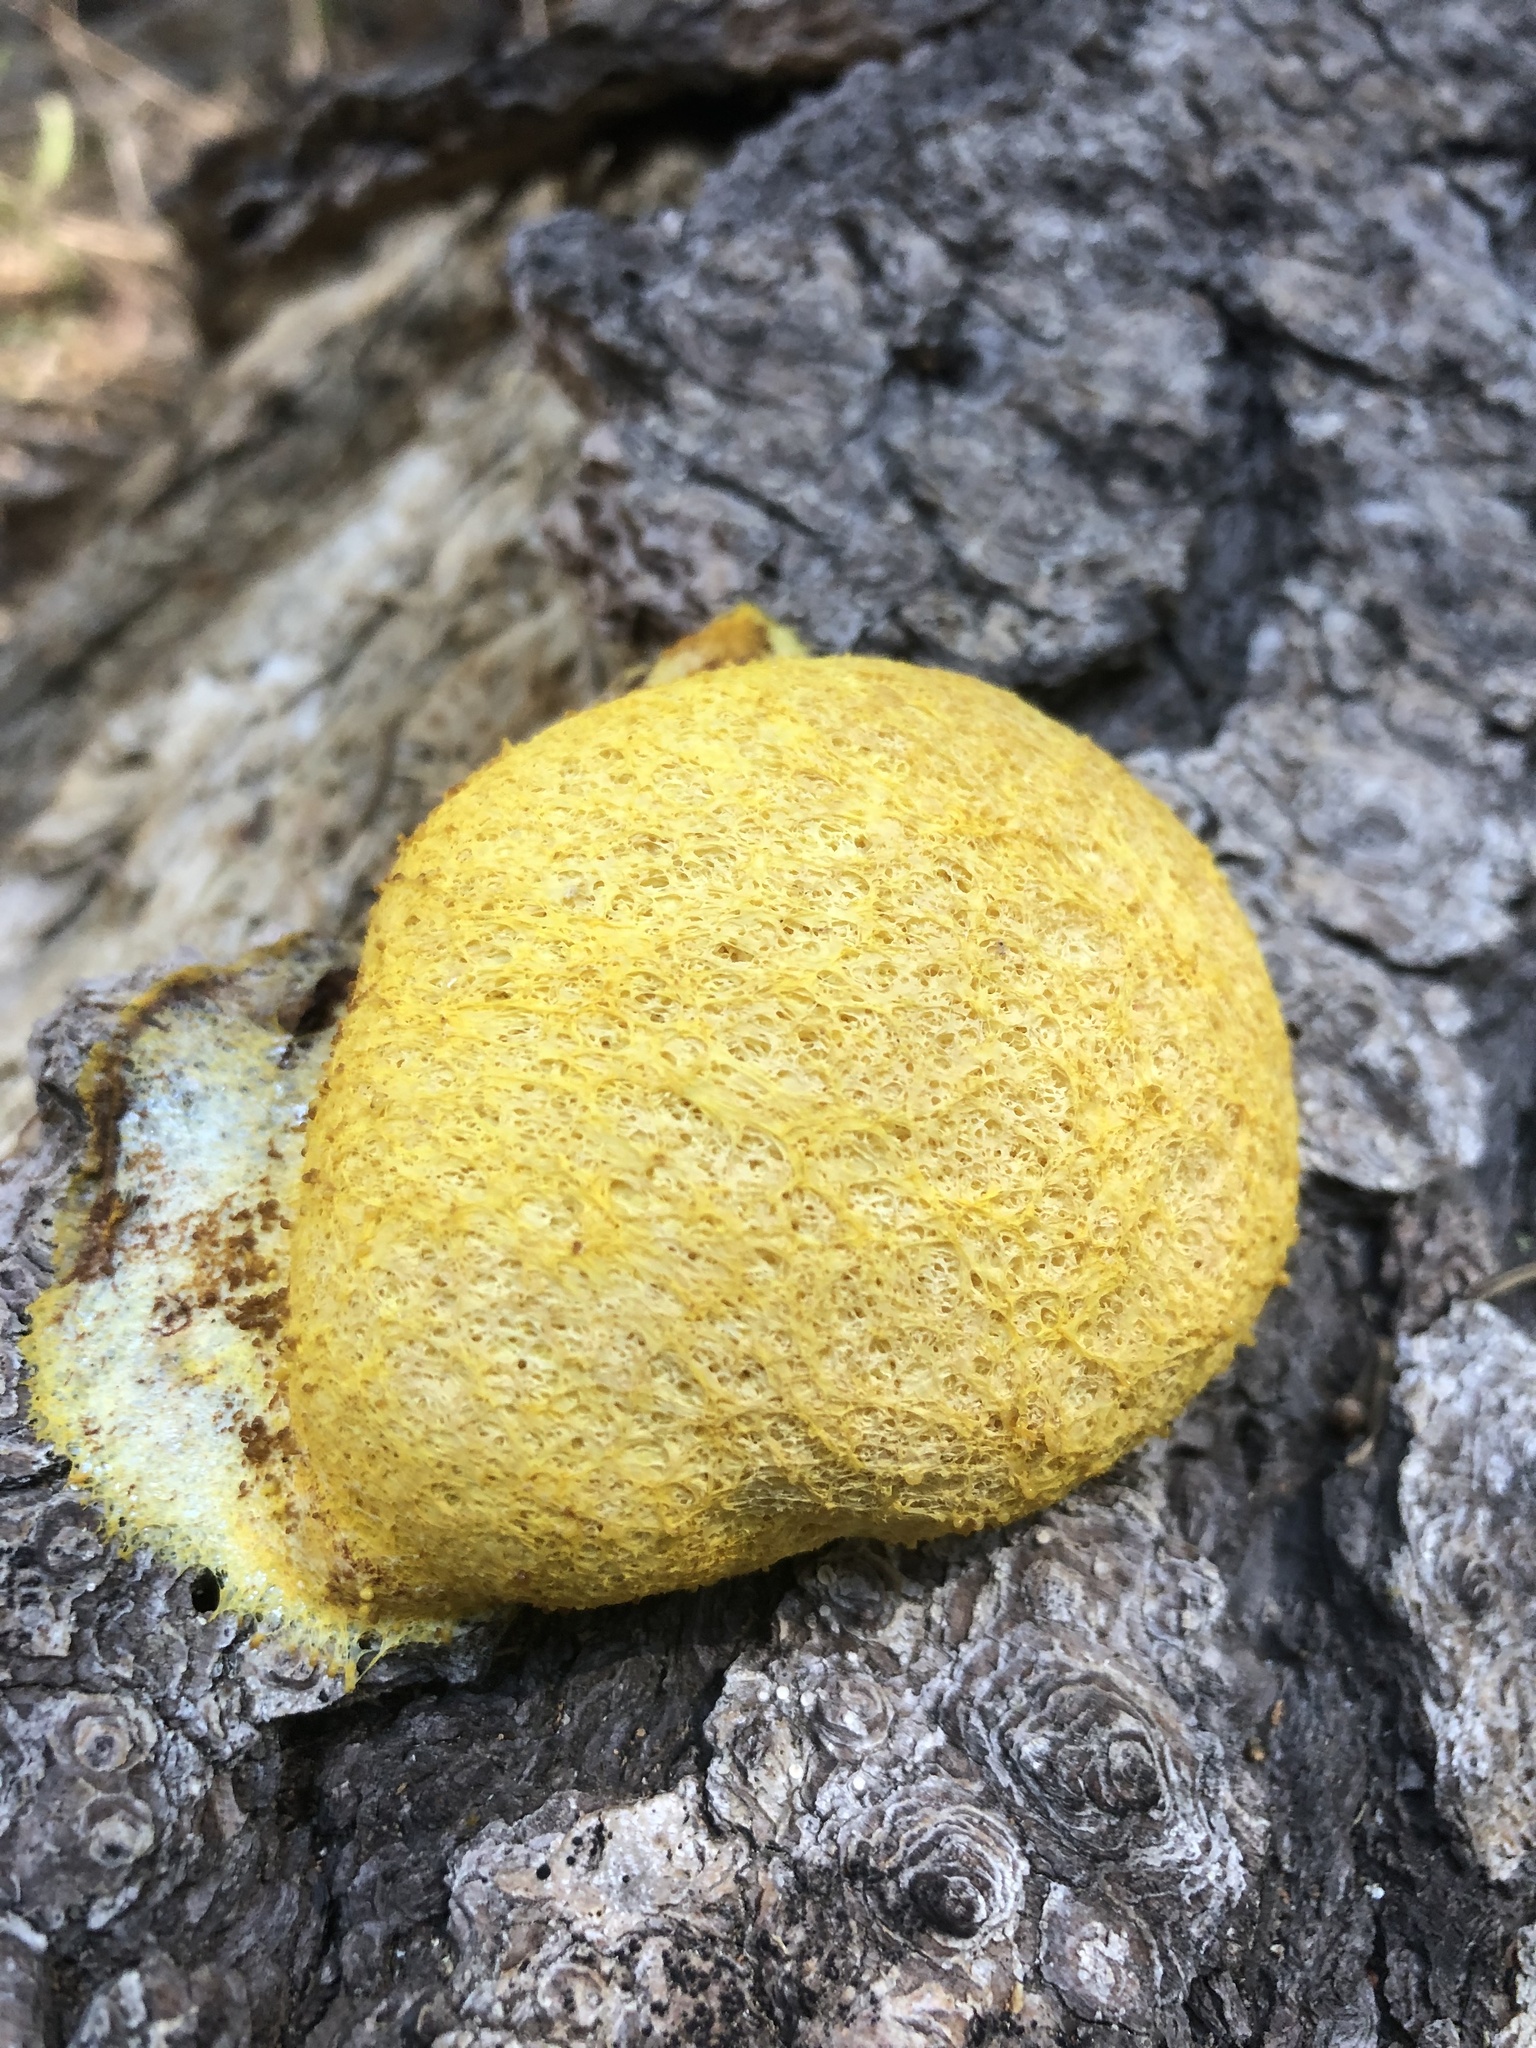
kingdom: Protozoa
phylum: Mycetozoa
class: Myxomycetes
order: Physarales
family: Physaraceae
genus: Fuligo
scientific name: Fuligo septica
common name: Dog vomit slime mold
